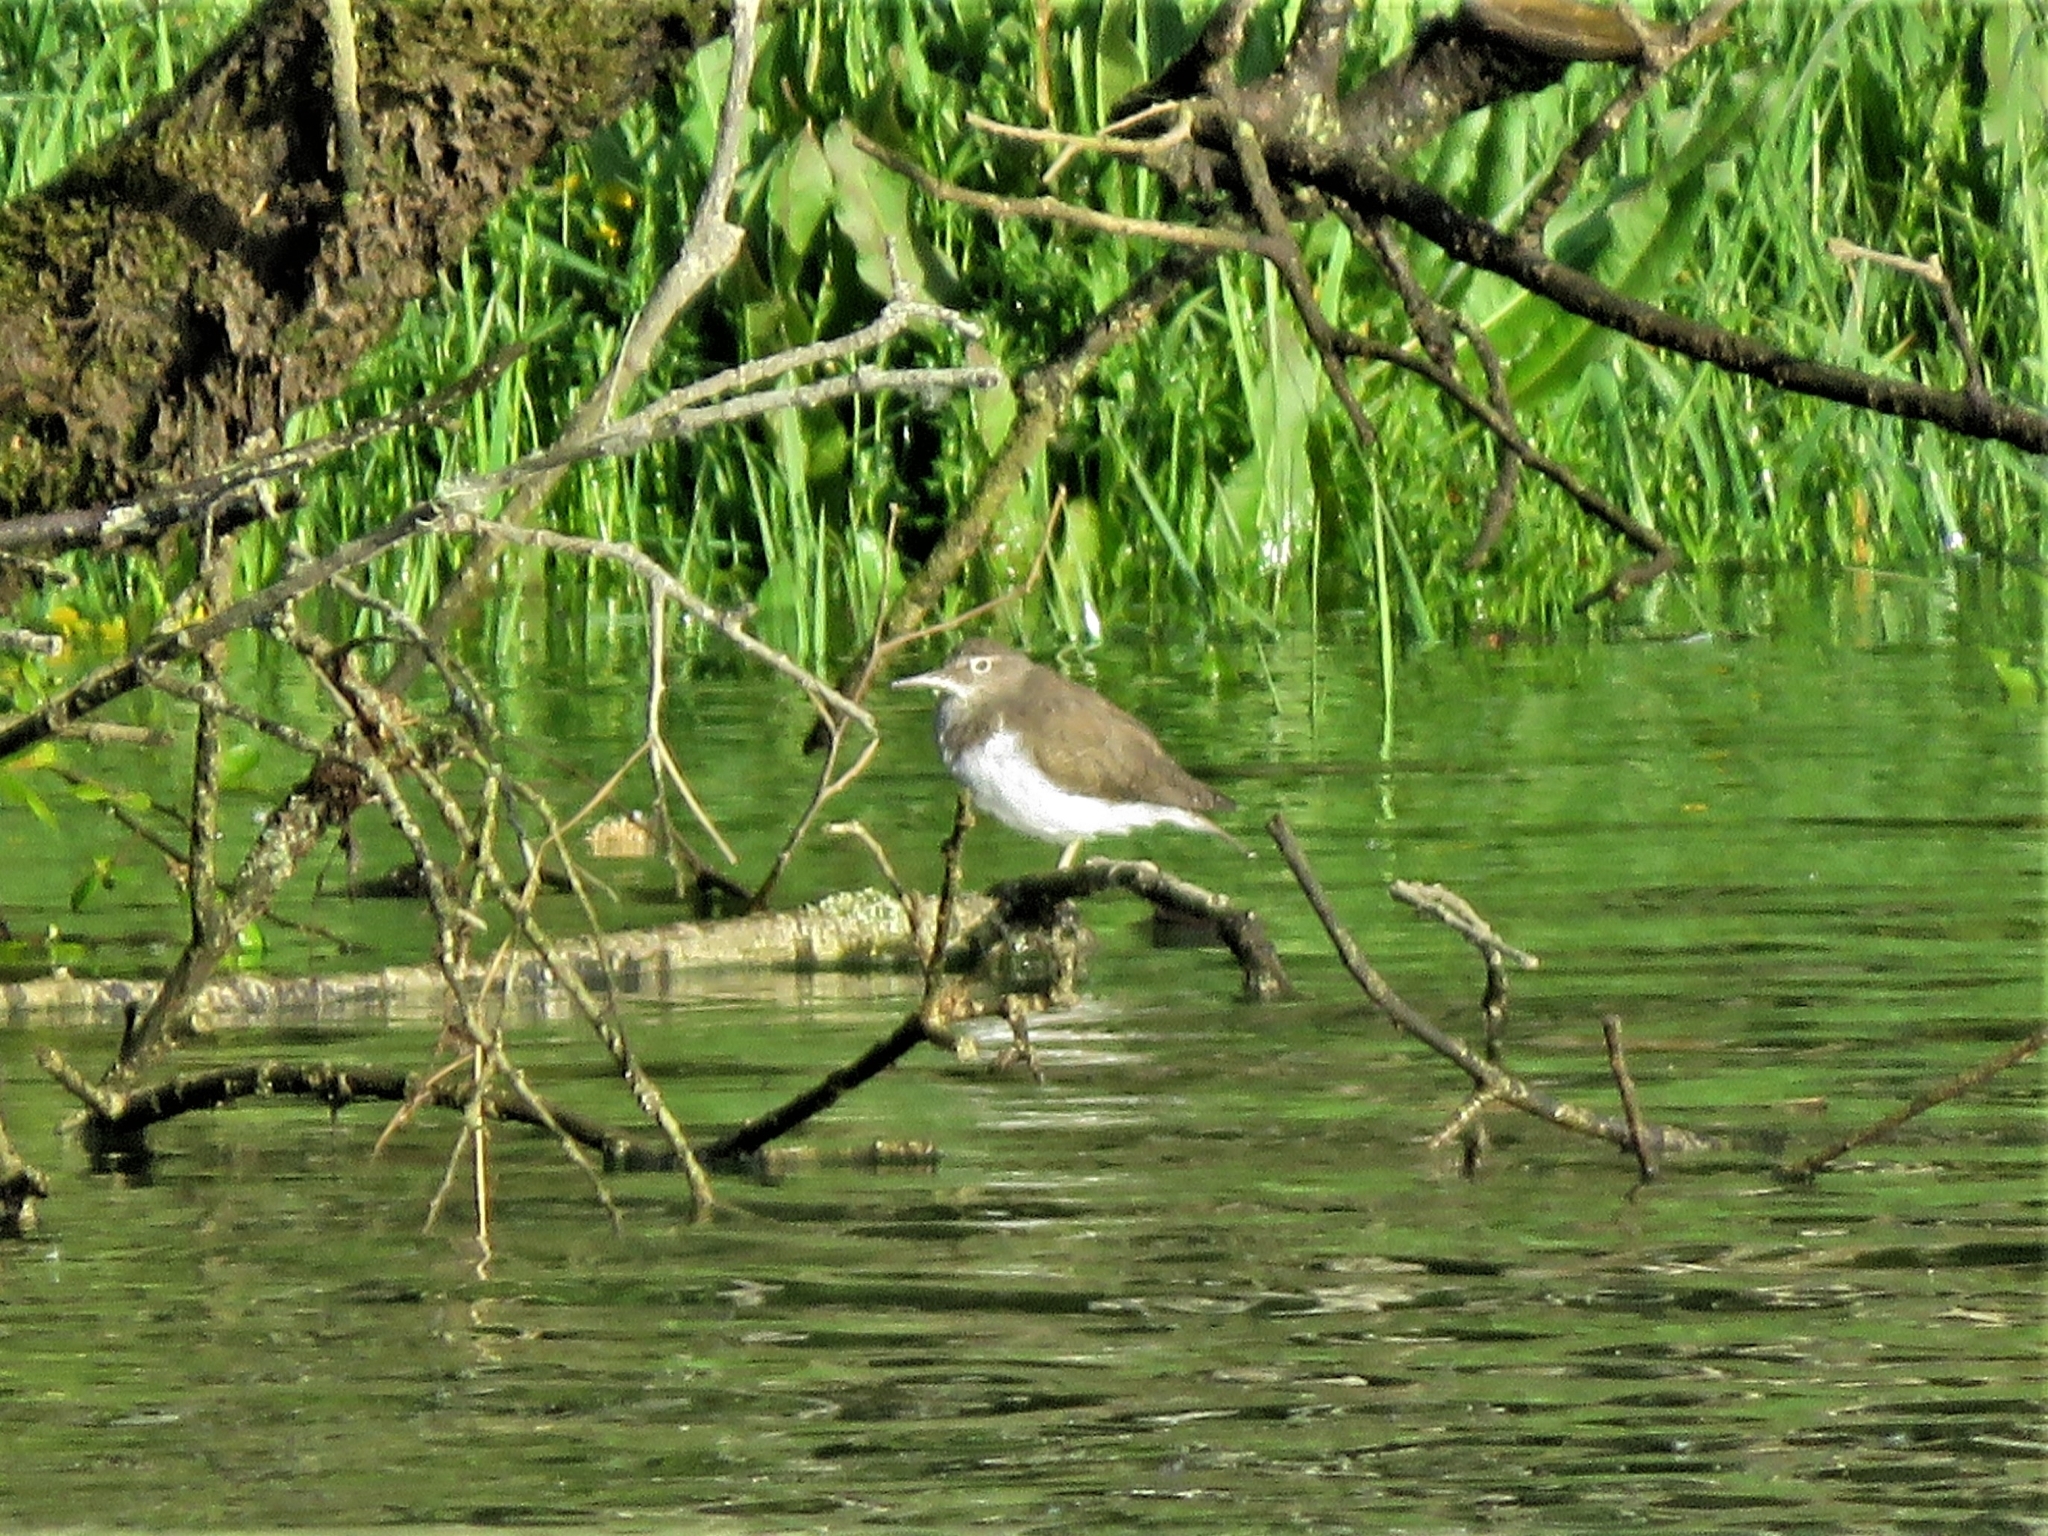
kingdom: Animalia
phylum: Chordata
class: Aves
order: Charadriiformes
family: Scolopacidae
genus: Tringa
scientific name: Tringa ochropus
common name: Green sandpiper
